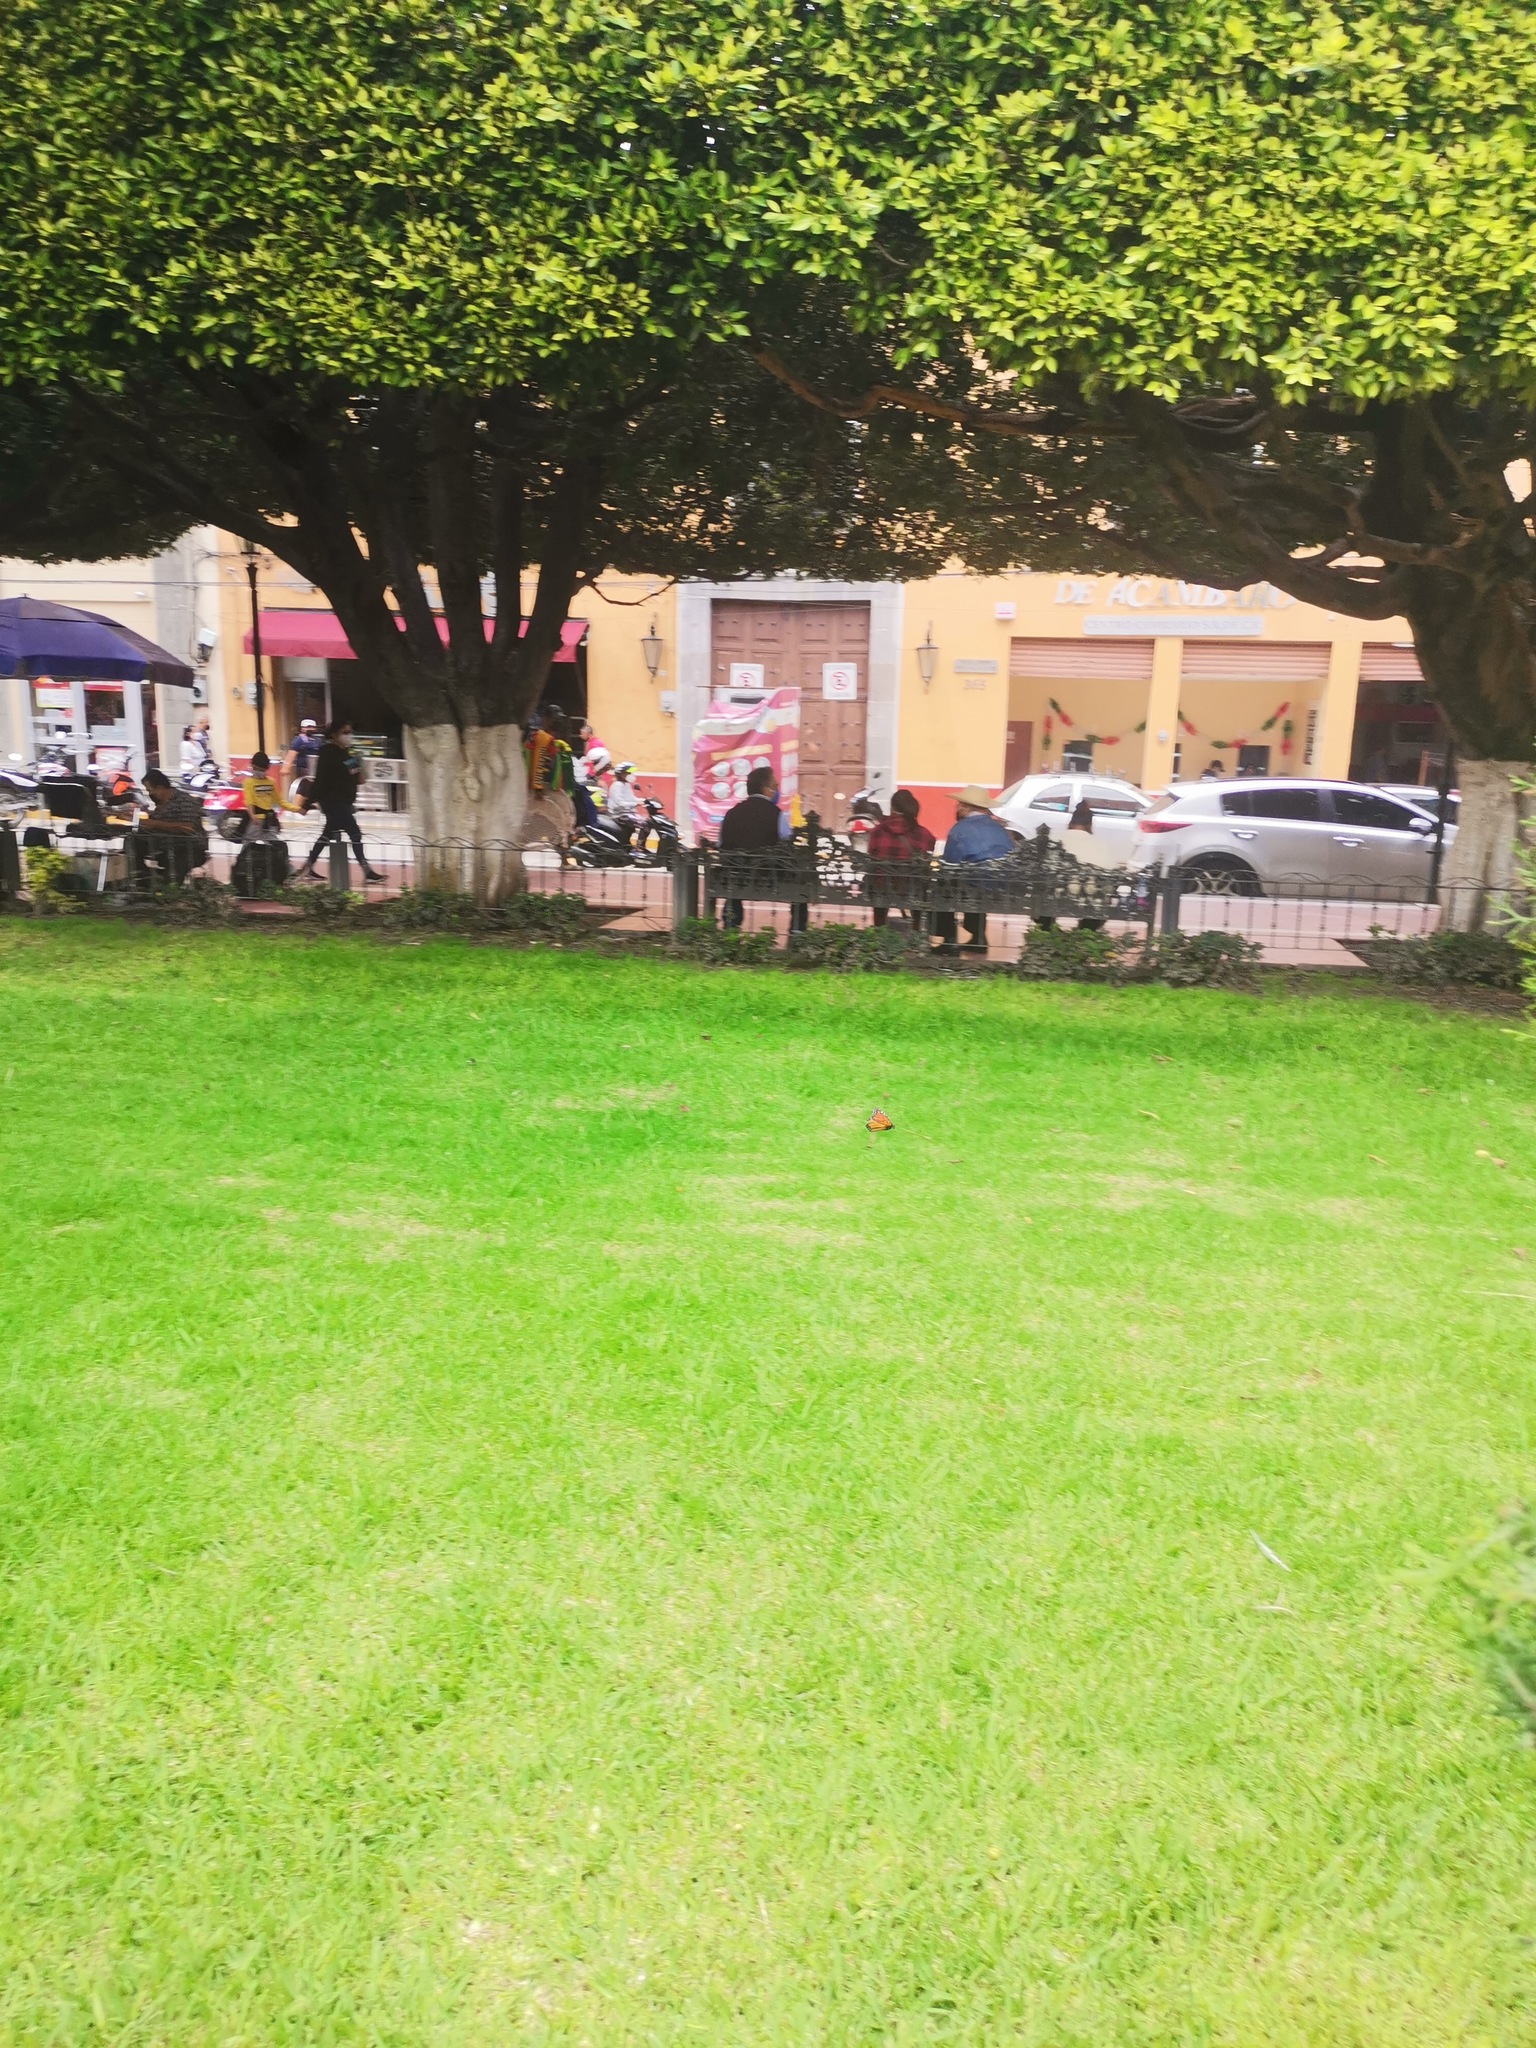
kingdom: Animalia
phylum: Arthropoda
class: Insecta
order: Lepidoptera
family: Nymphalidae
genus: Danaus
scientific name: Danaus plexippus
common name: Monarch
